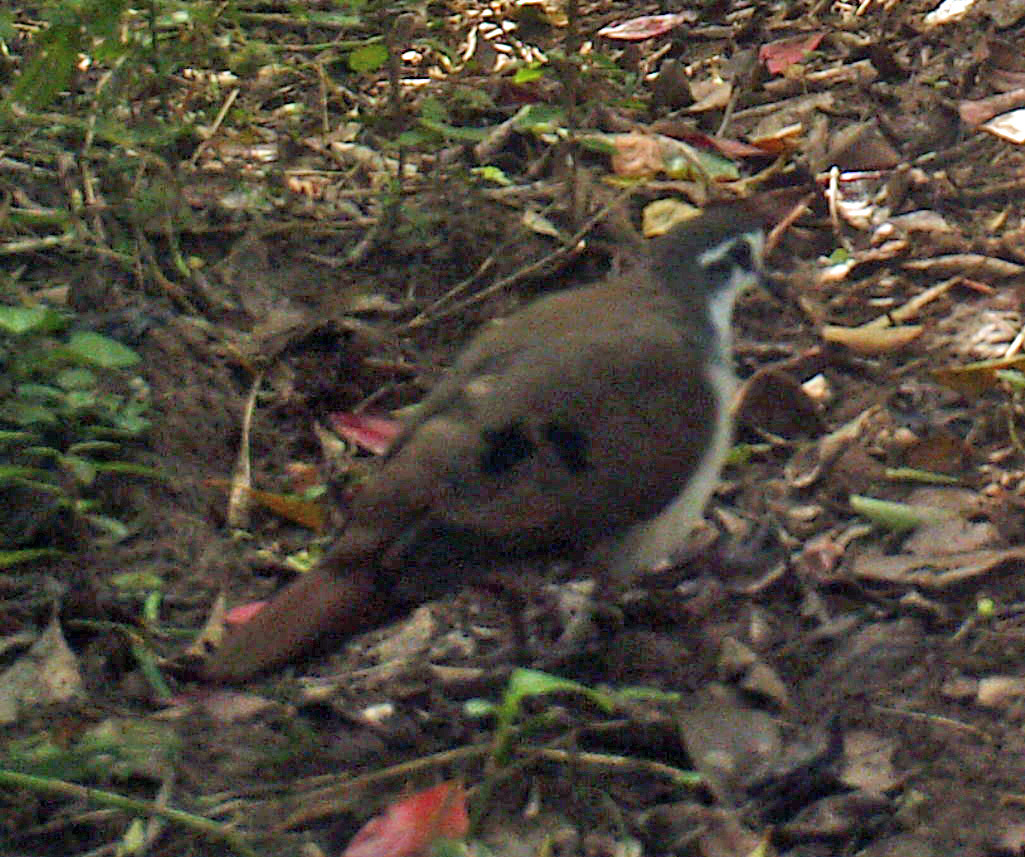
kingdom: Animalia
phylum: Chordata
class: Aves
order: Columbiformes
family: Columbidae
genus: Turtur
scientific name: Turtur tympanistria
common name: Tambourine dove
